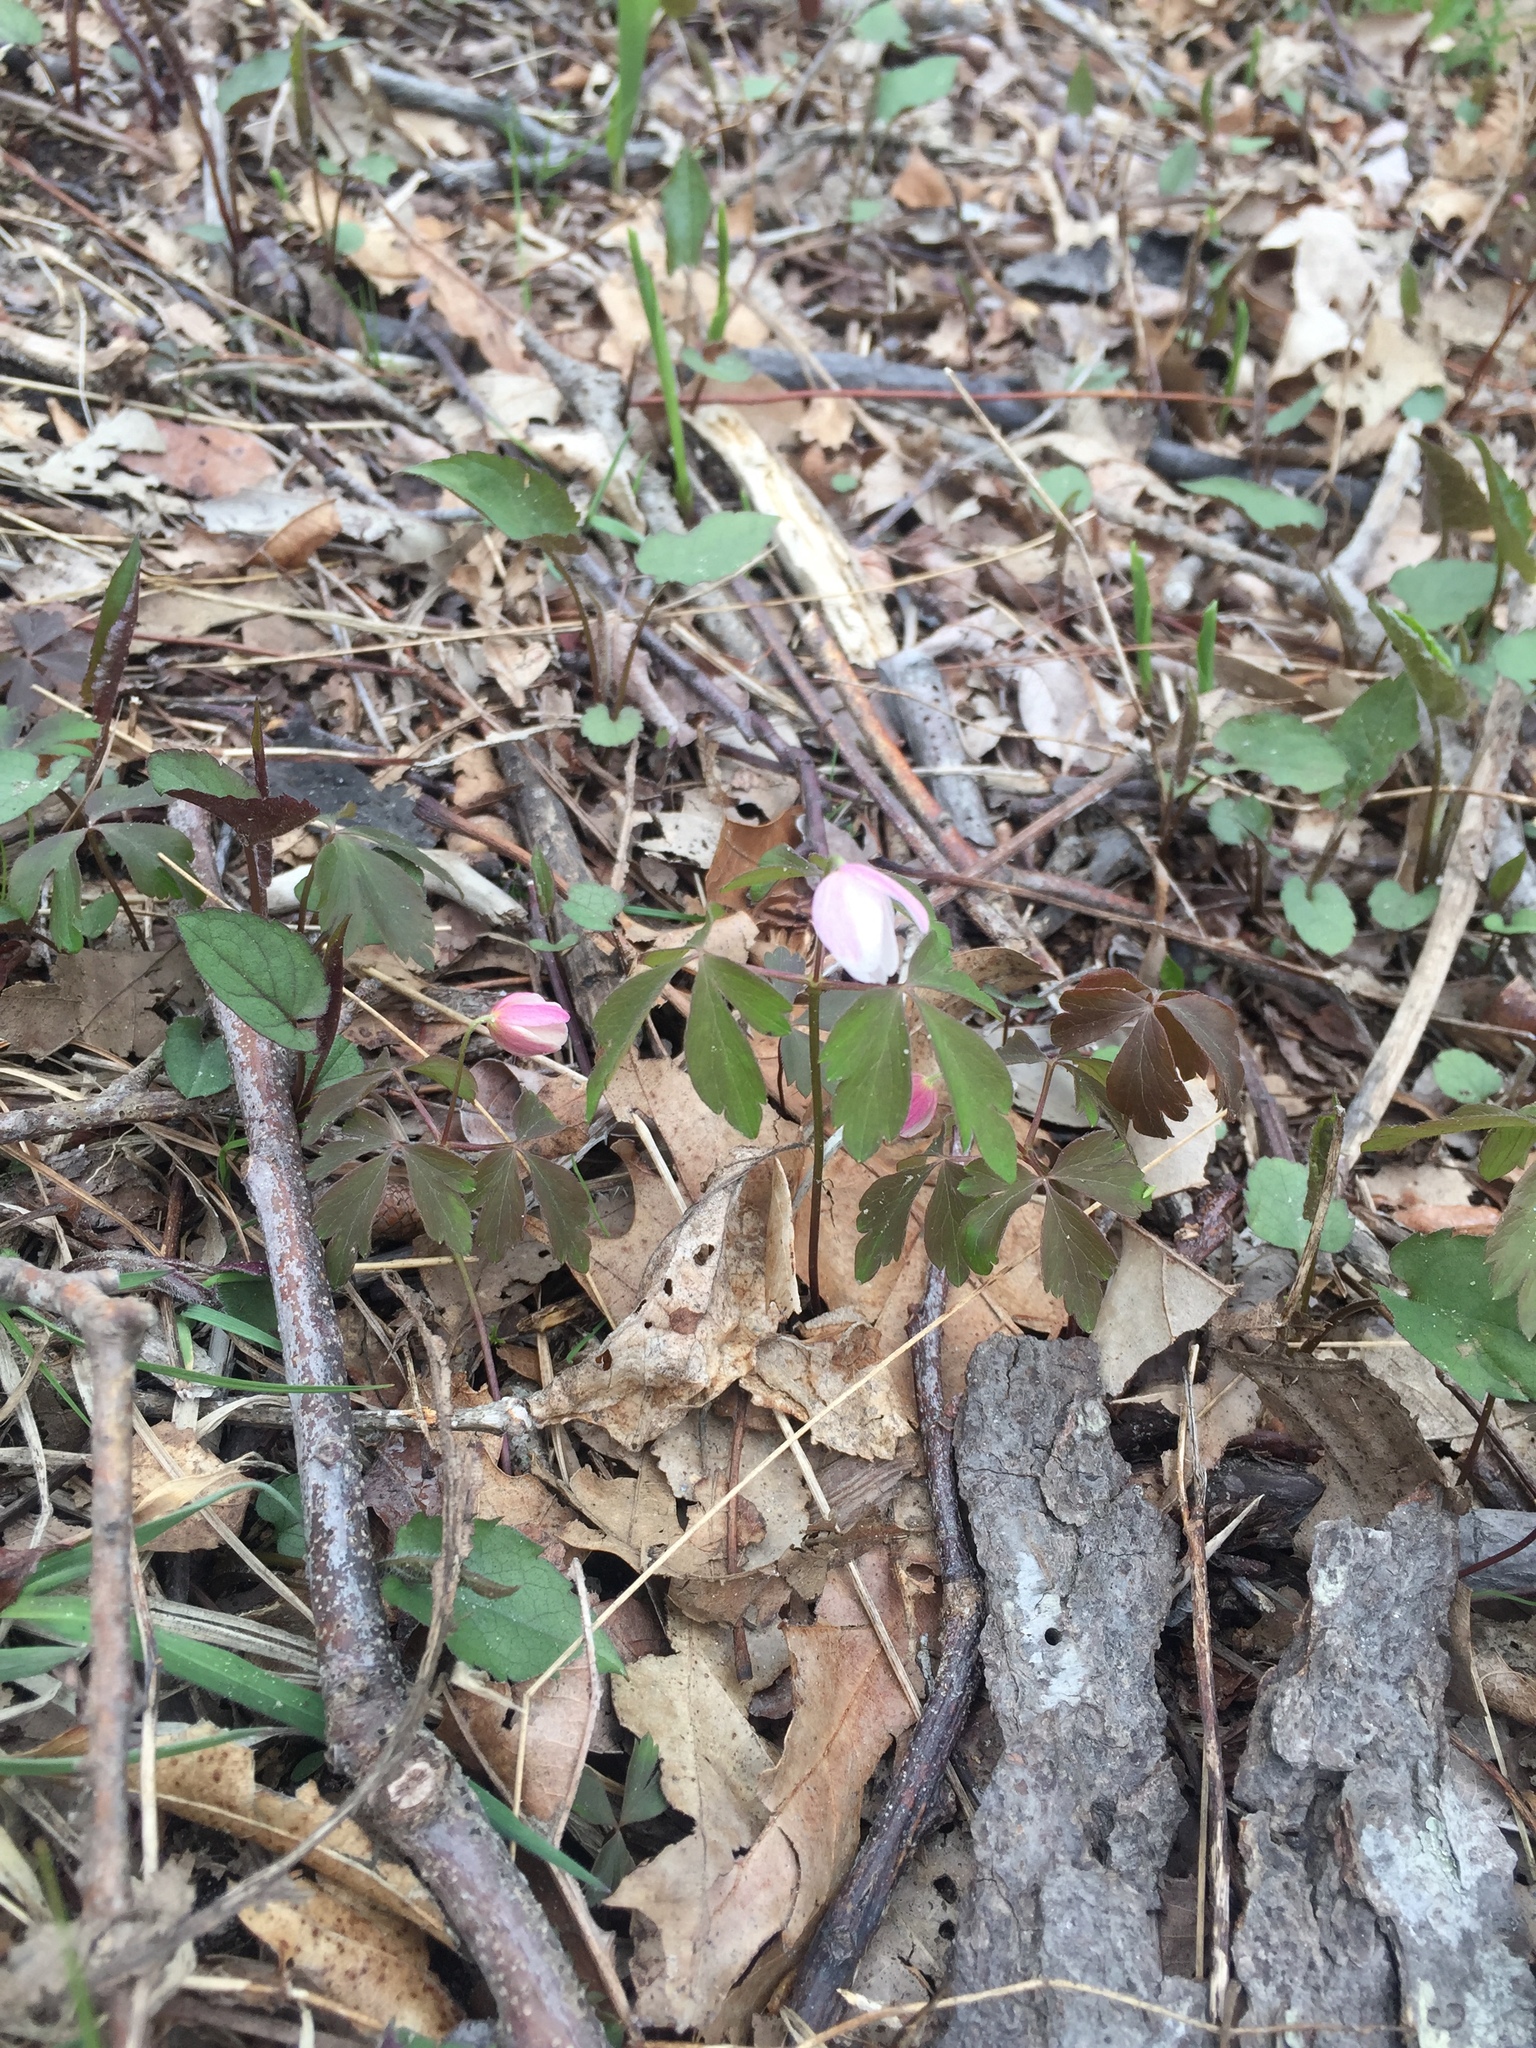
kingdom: Plantae
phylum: Tracheophyta
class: Magnoliopsida
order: Ranunculales
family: Ranunculaceae
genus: Anemone
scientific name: Anemone quinquefolia
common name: Wood anemone
